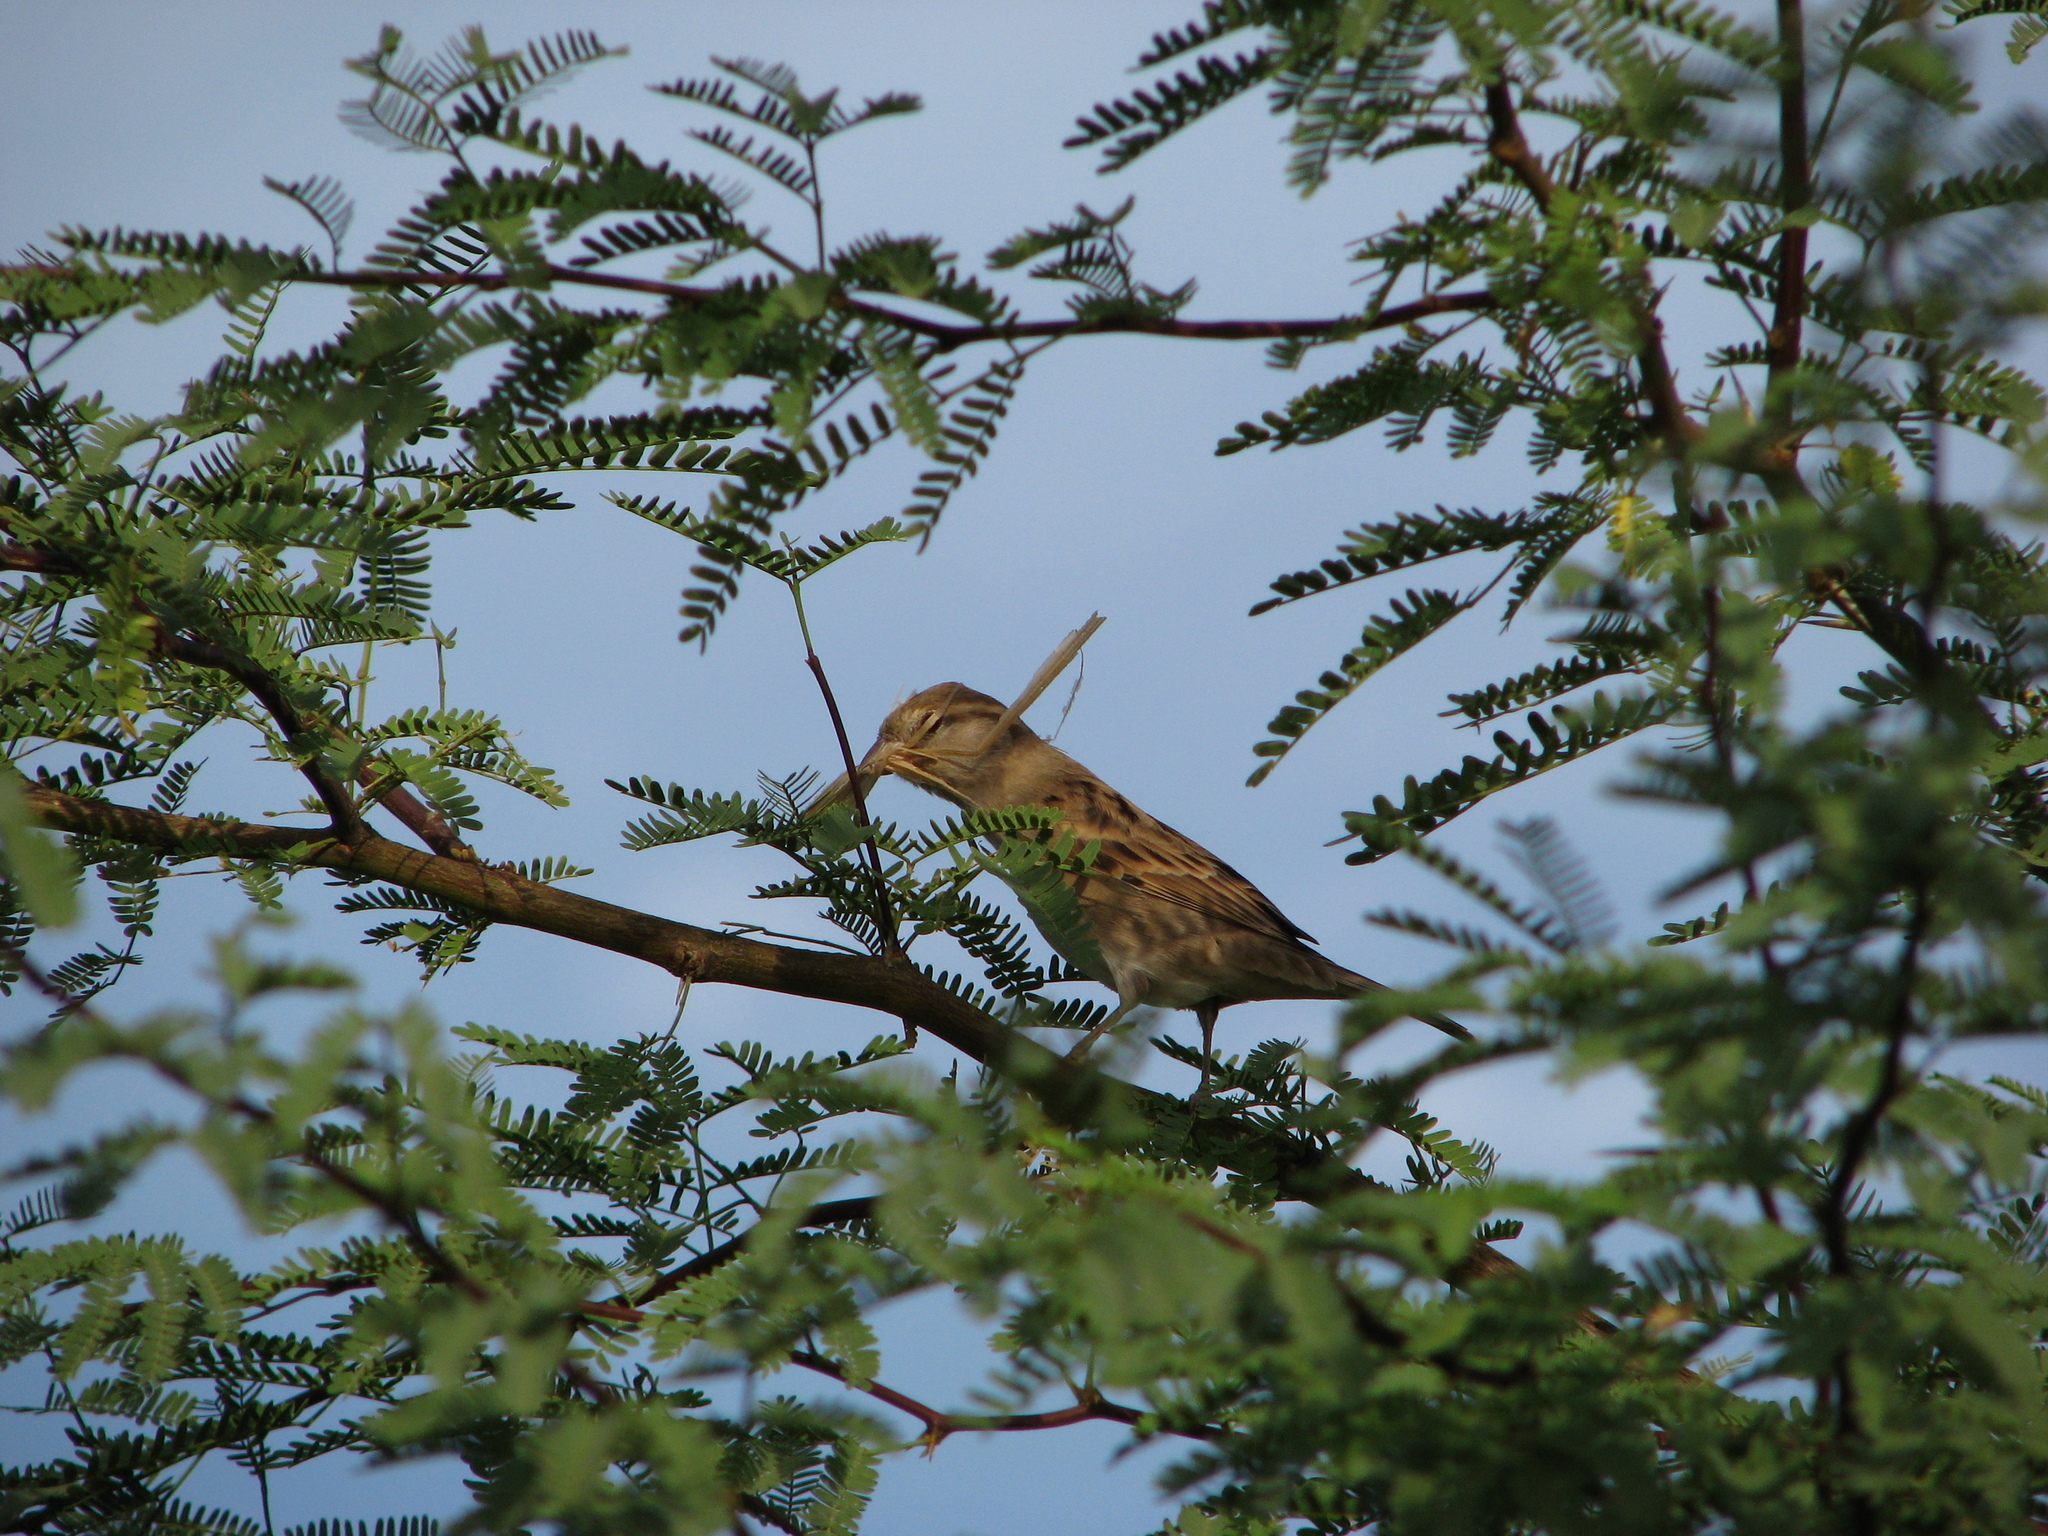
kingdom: Animalia
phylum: Chordata
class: Aves
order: Passeriformes
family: Passeridae
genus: Passer
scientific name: Passer domesticus
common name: House sparrow
